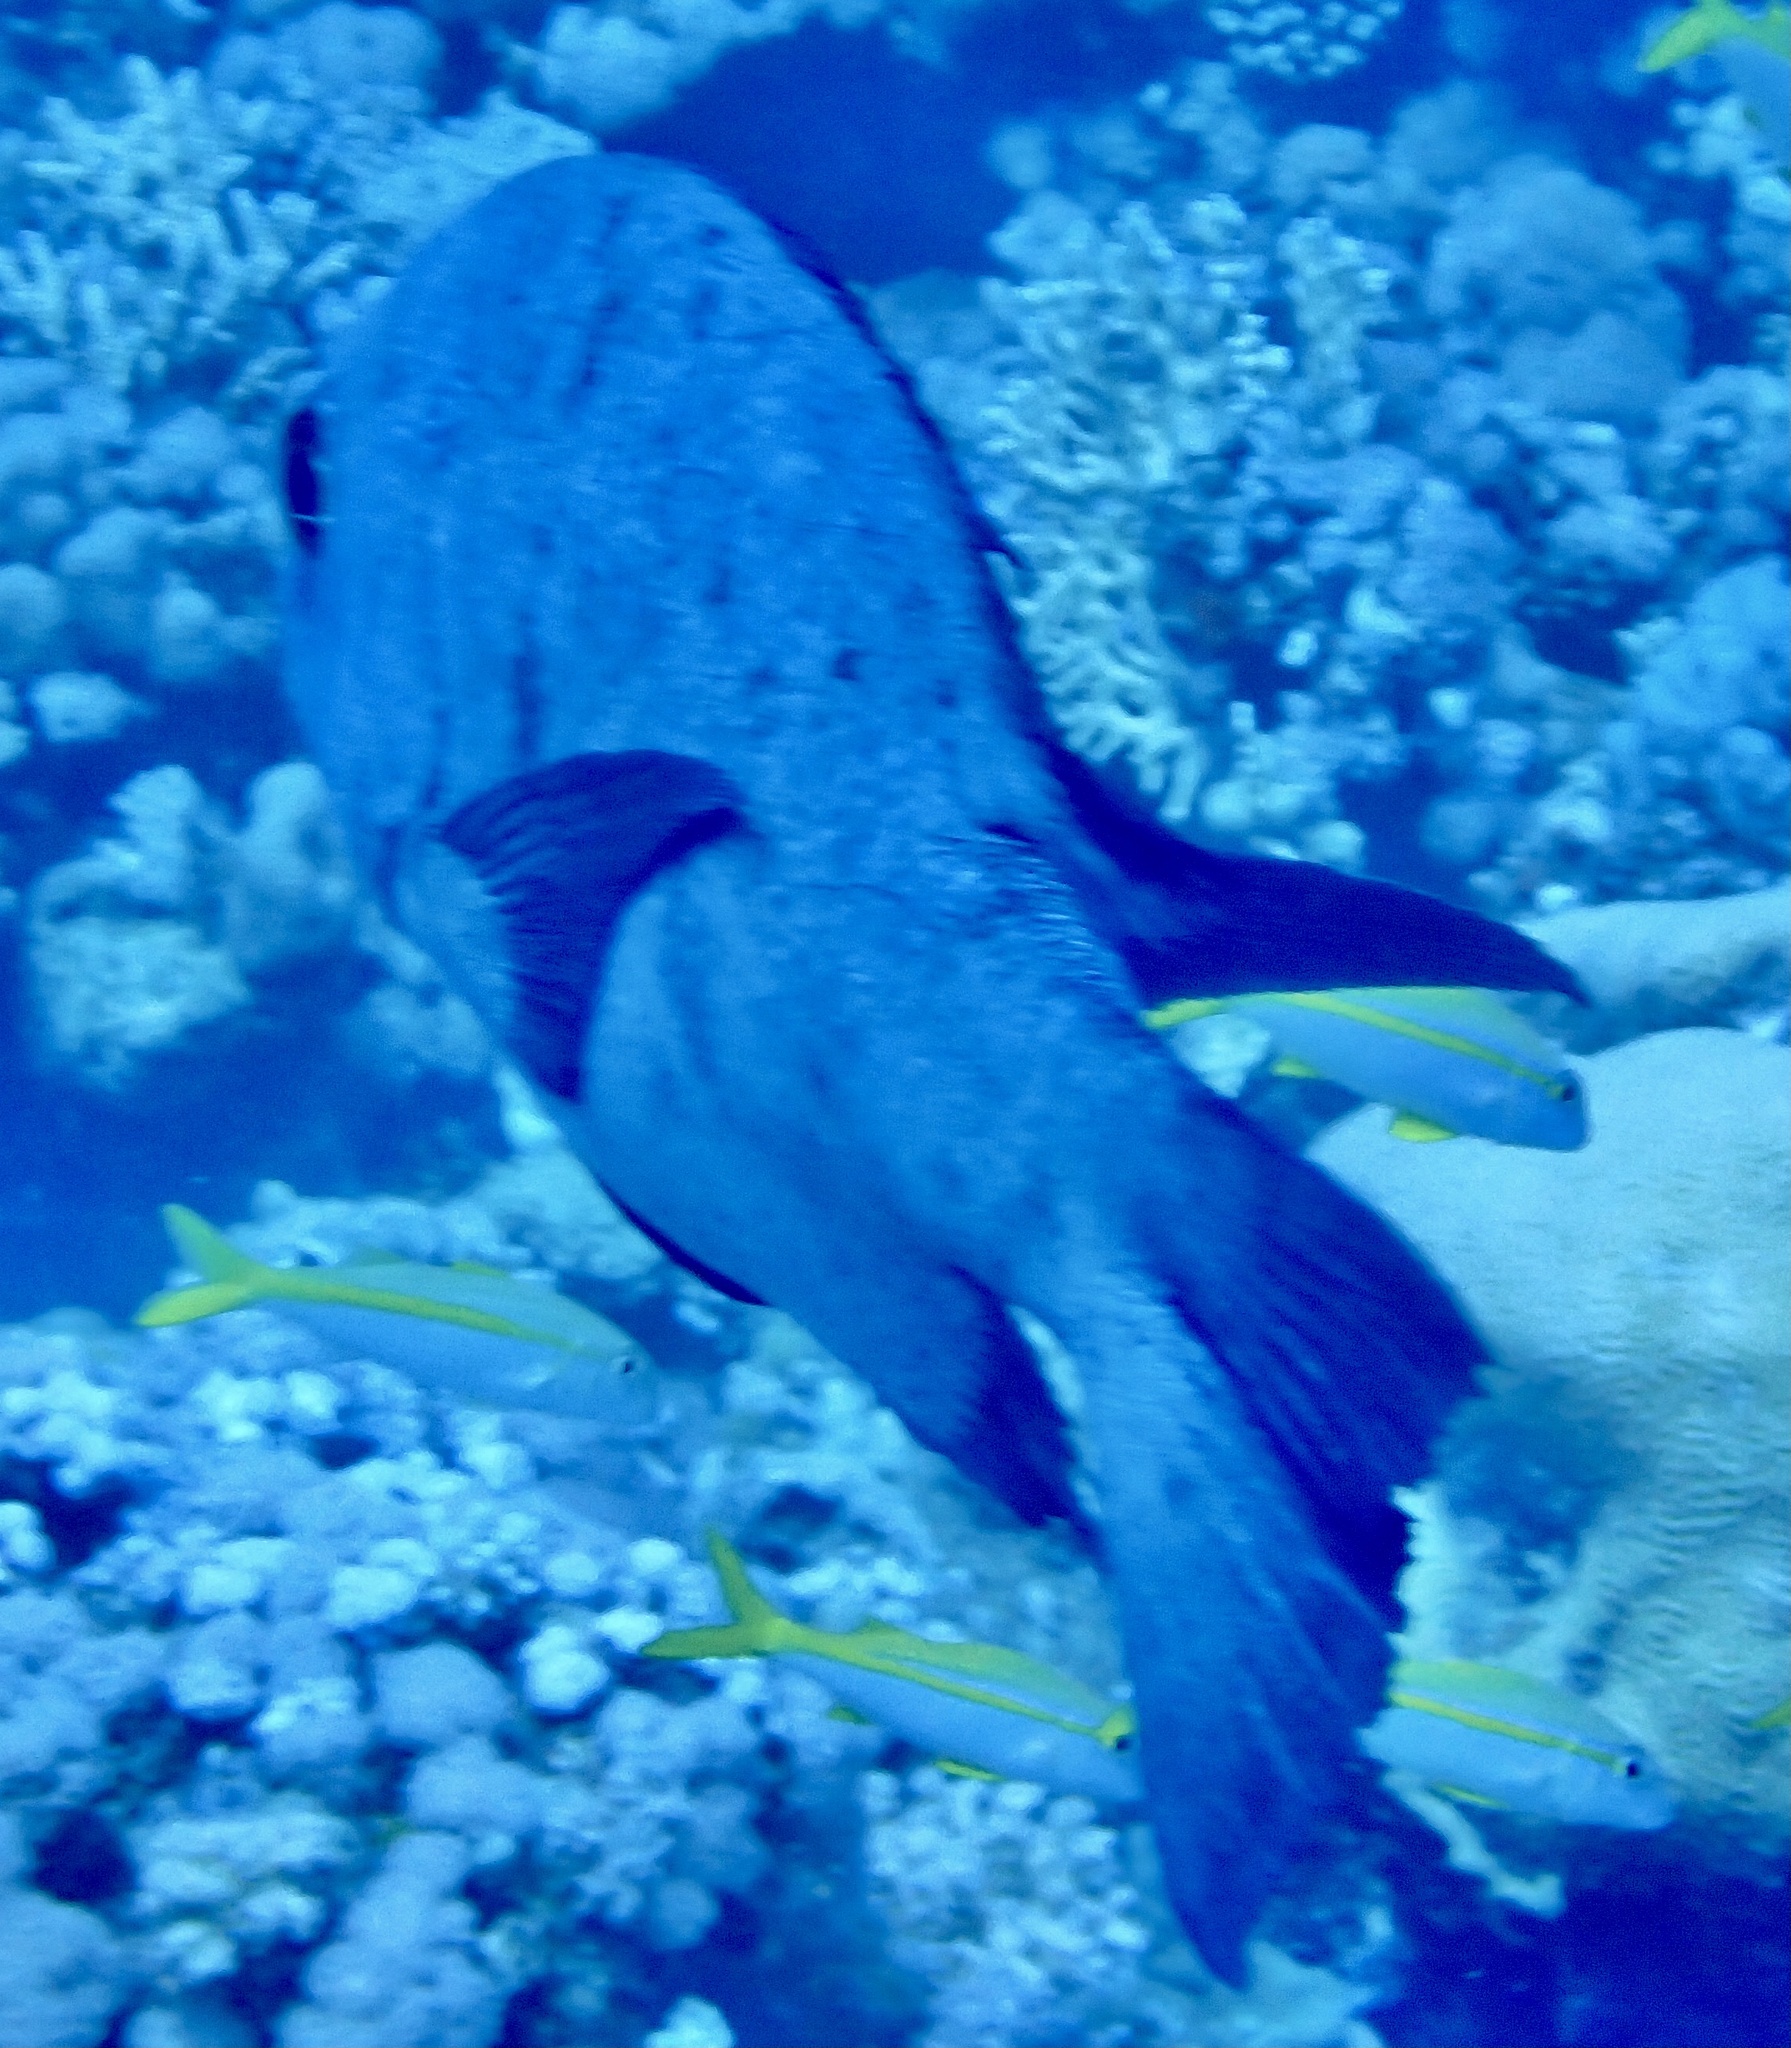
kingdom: Animalia
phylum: Chordata
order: Perciformes
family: Lutjanidae
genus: Macolor
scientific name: Macolor niger
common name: Black snapper
